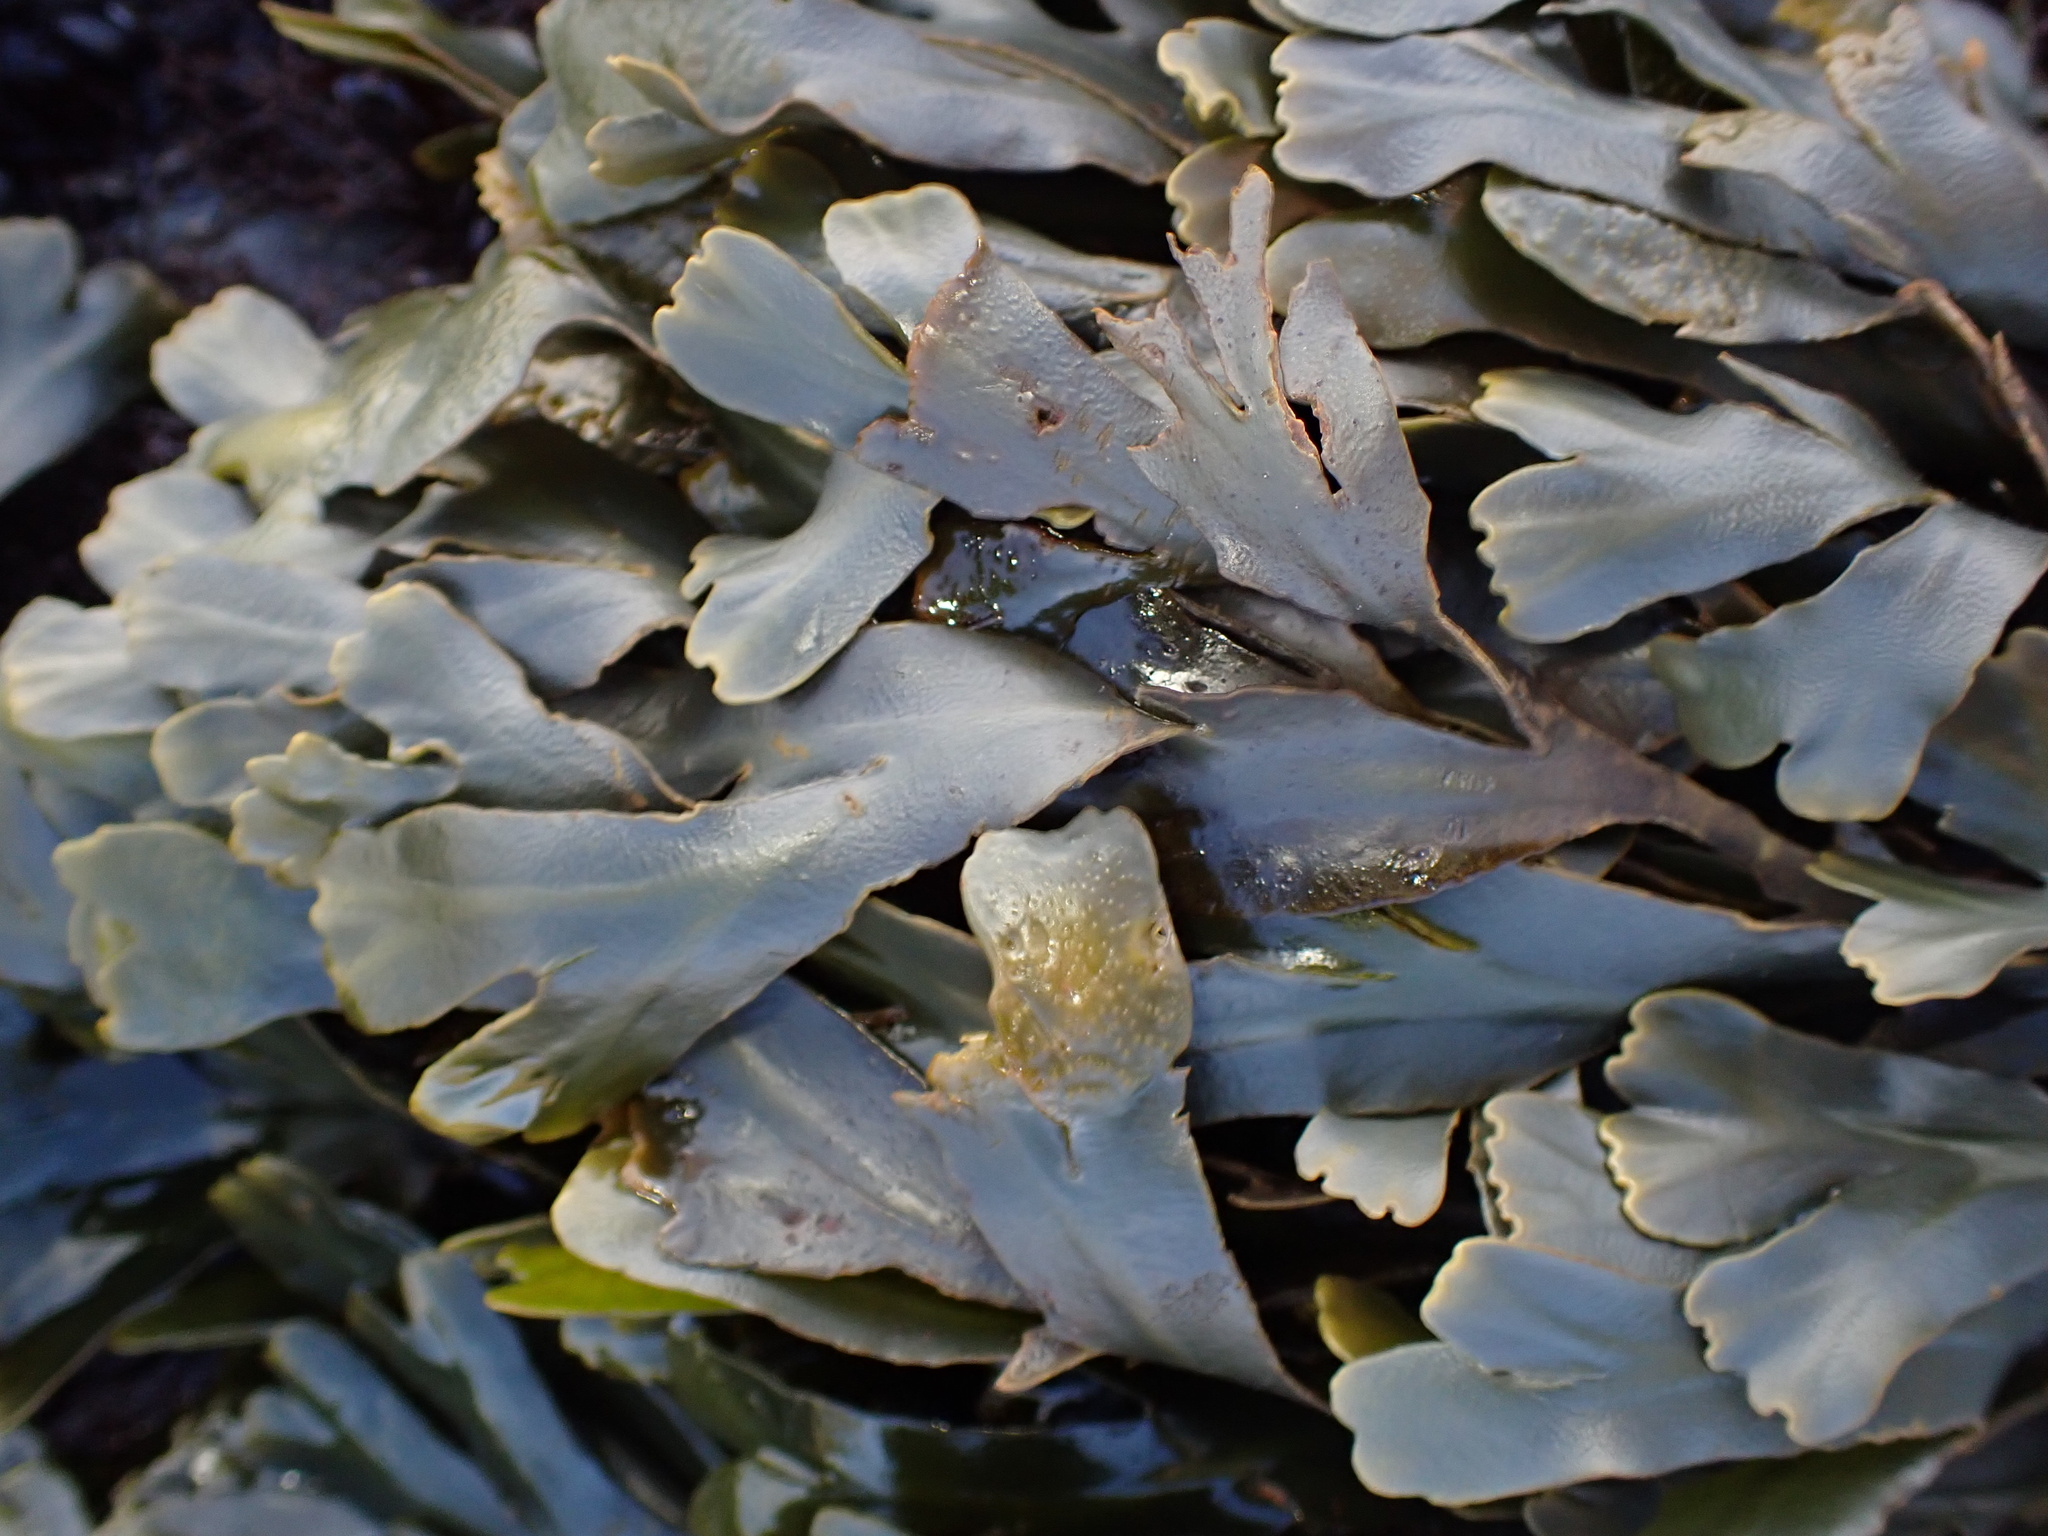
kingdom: Chromista
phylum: Ochrophyta
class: Phaeophyceae
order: Fucales
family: Fucaceae
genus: Fucus
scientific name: Fucus distichus
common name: Rockweed
